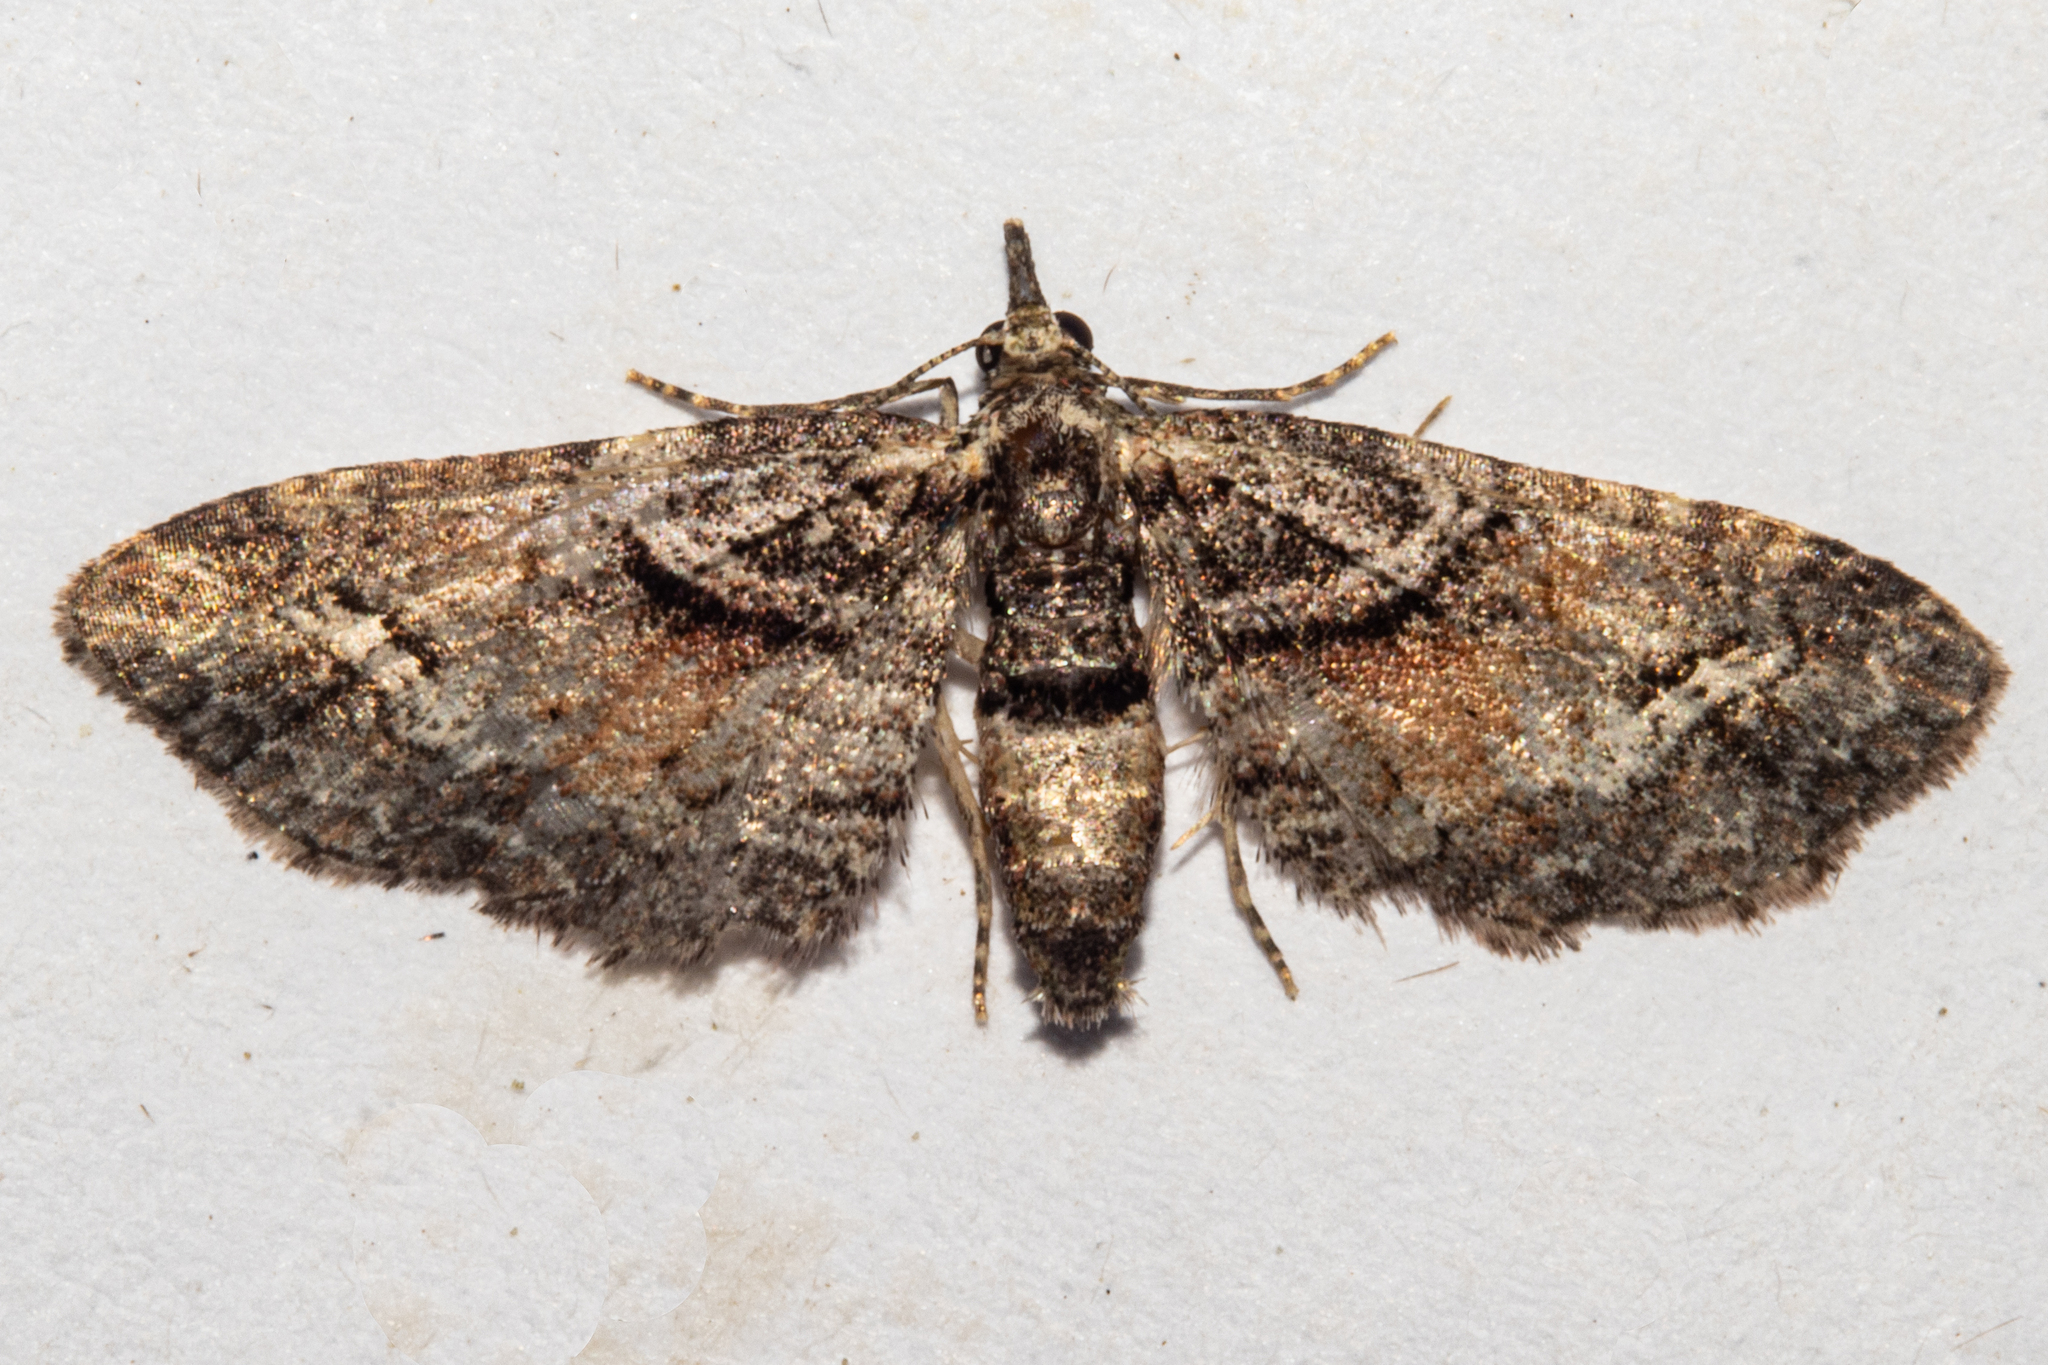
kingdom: Animalia
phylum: Arthropoda
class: Insecta
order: Lepidoptera
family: Geometridae
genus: Idaea
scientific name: Idaea mutanda
